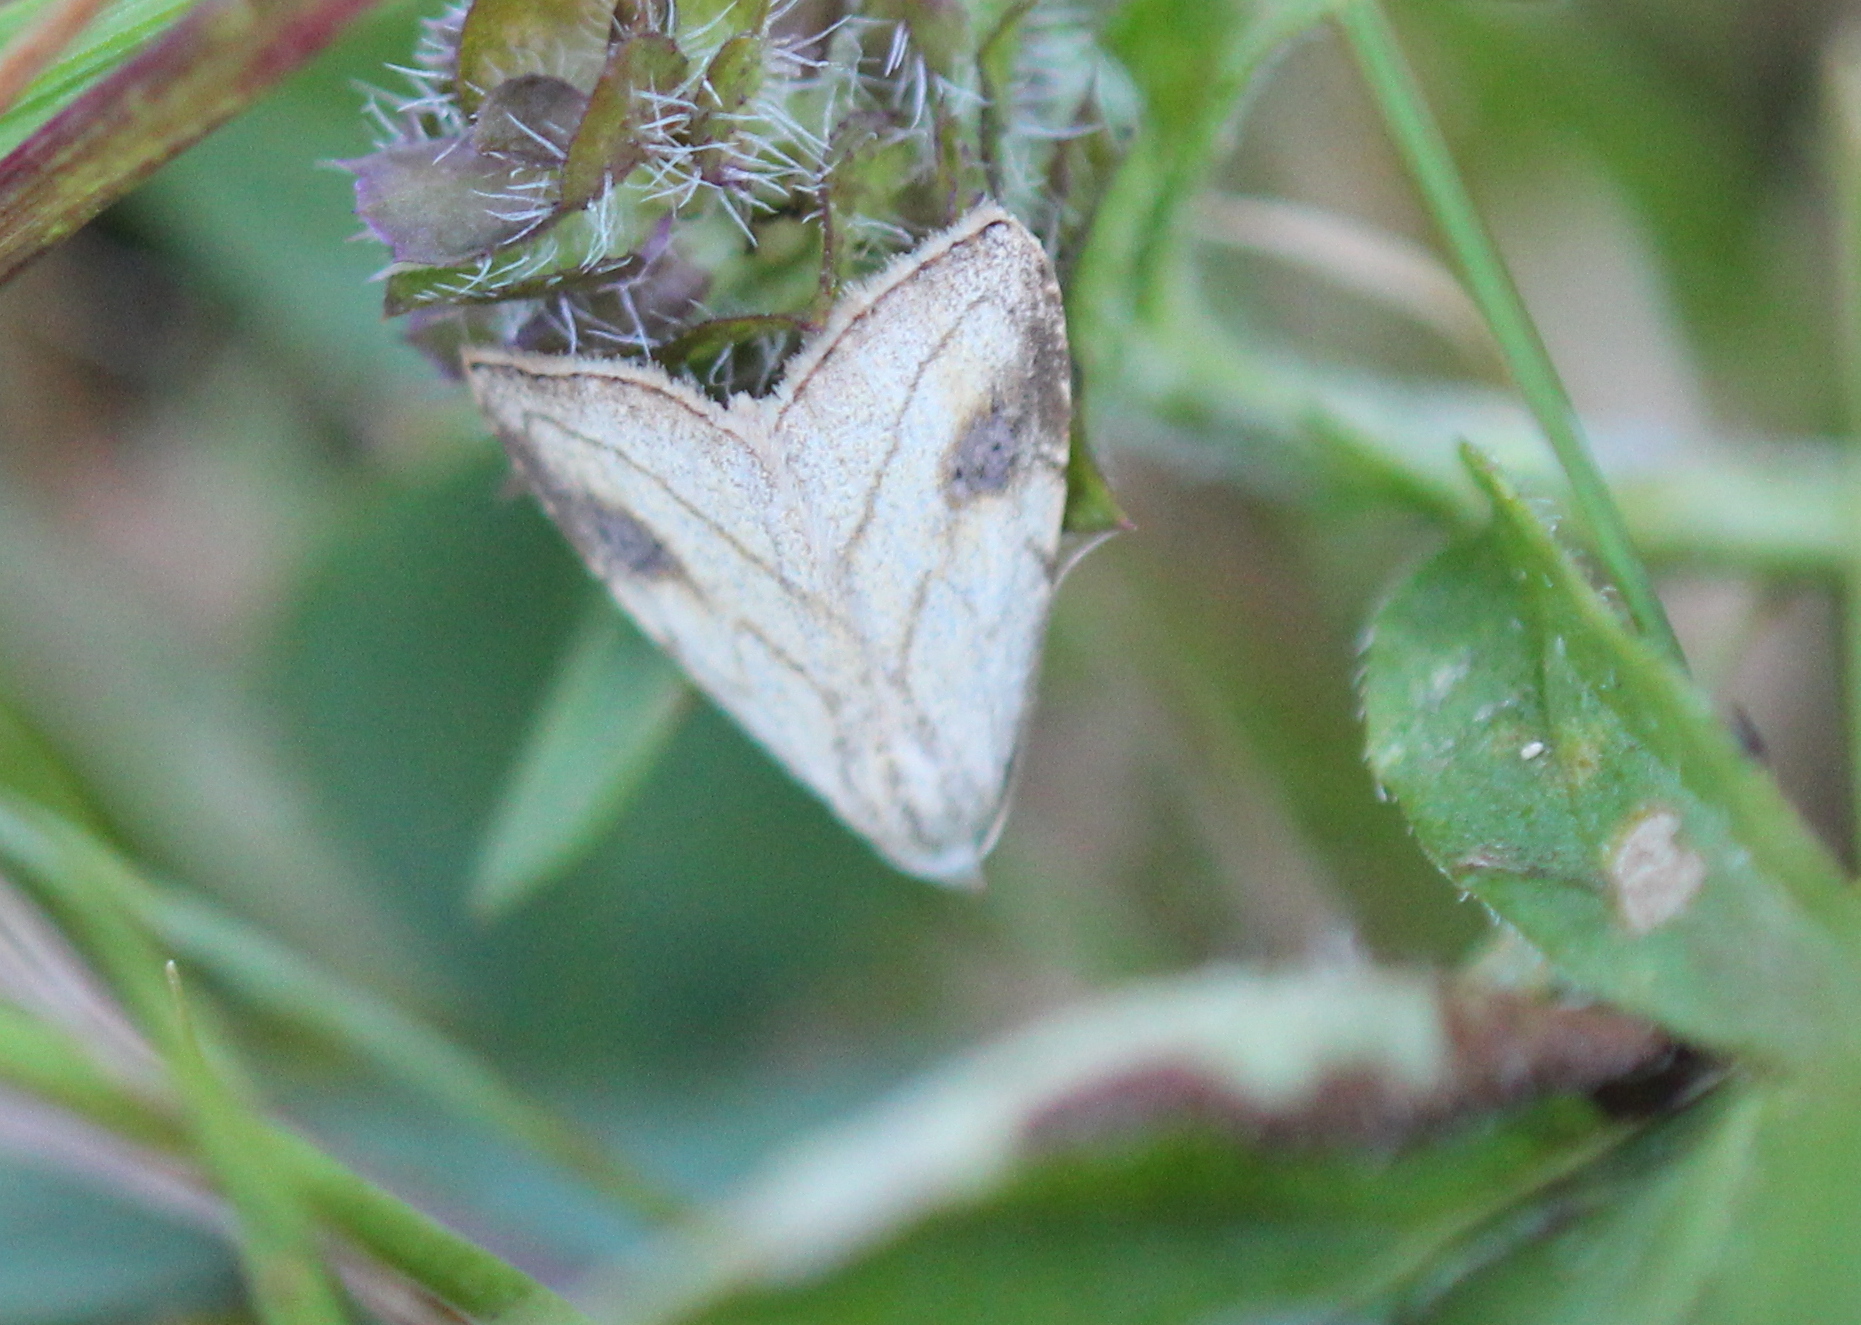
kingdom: Animalia
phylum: Arthropoda
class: Insecta
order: Lepidoptera
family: Erebidae
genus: Rivula
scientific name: Rivula propinqualis
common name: Spotted grass moth
